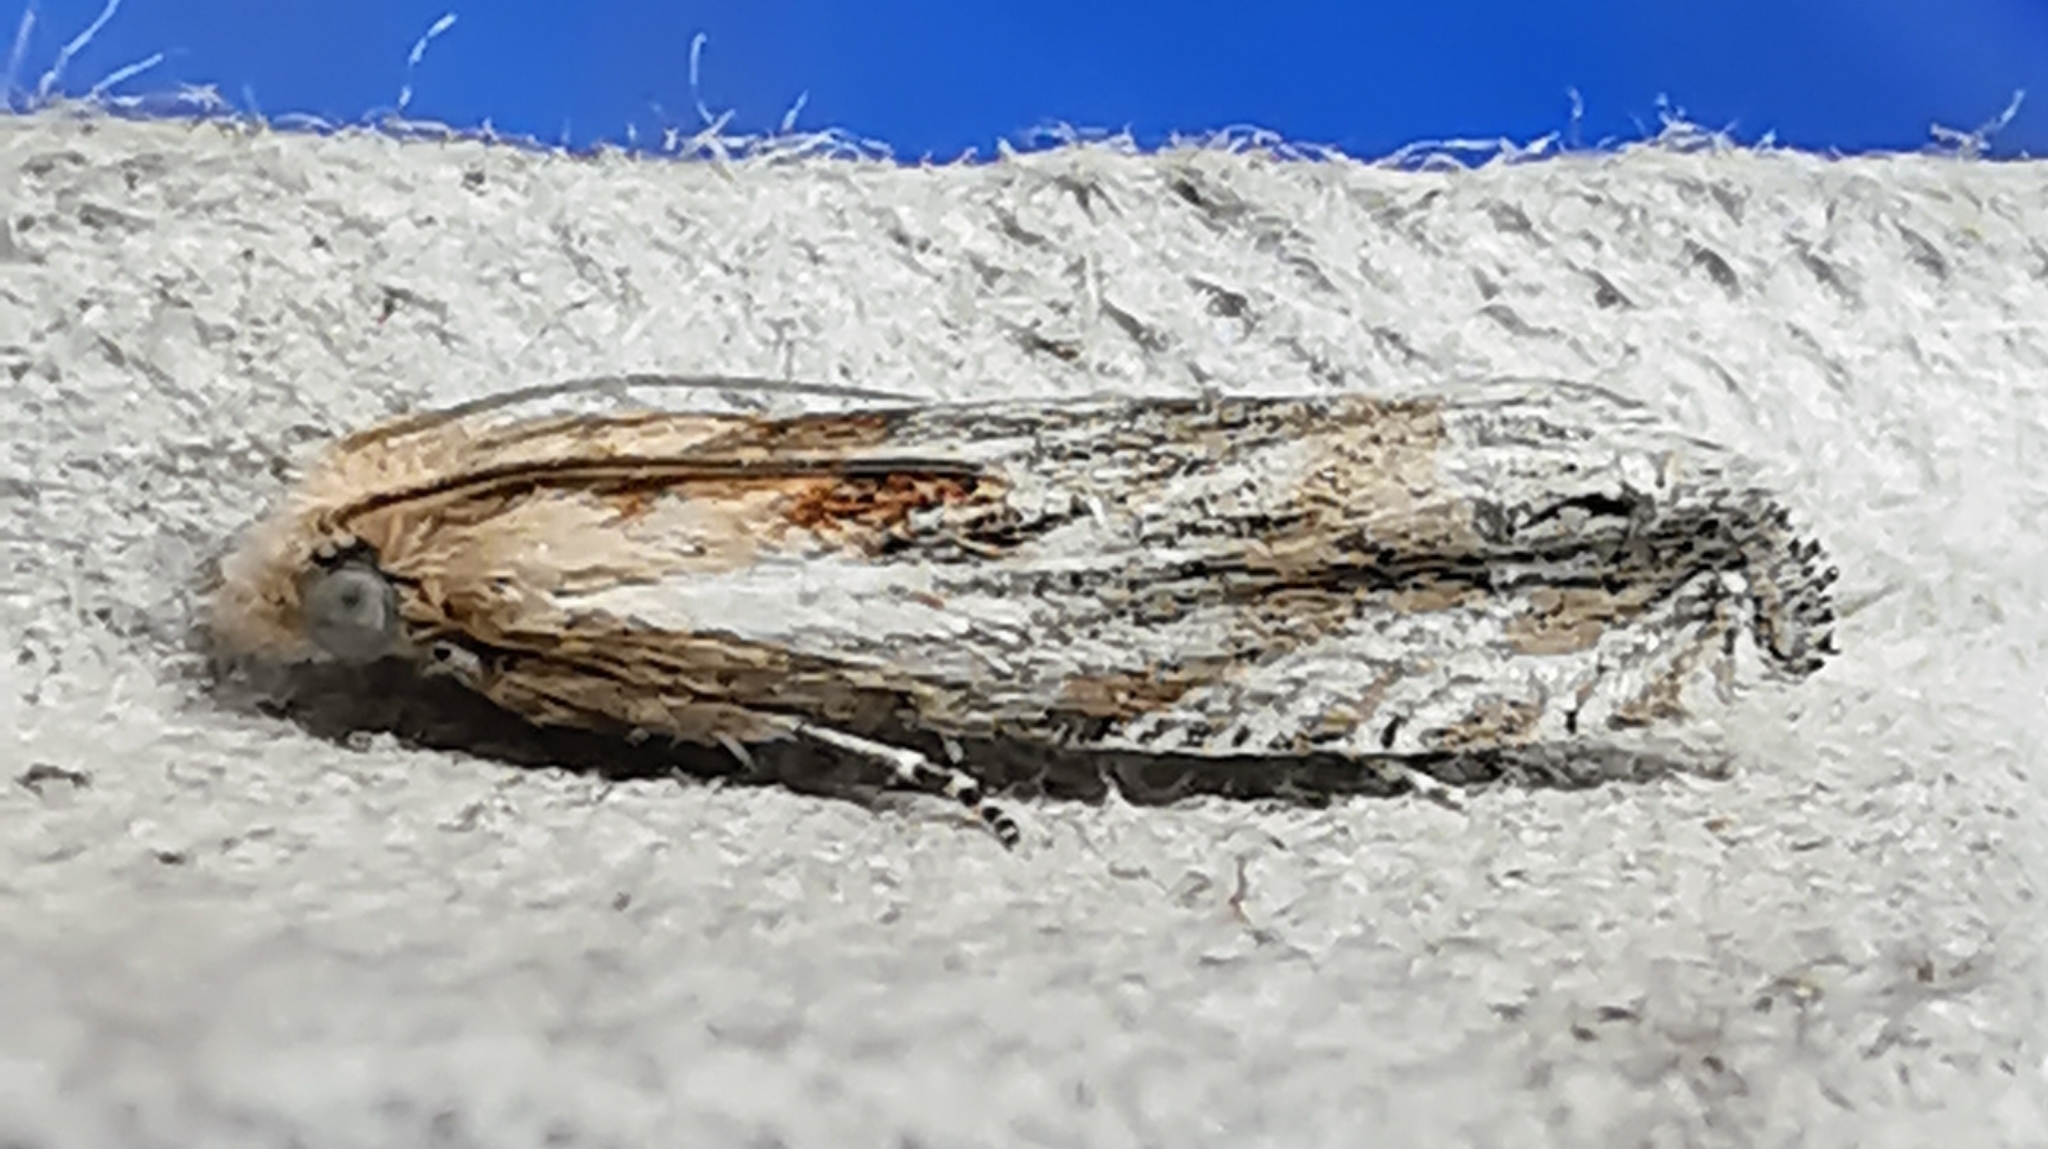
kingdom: Animalia
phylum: Arthropoda
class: Insecta
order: Lepidoptera
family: Tortricidae
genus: Eucosma
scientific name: Eucosma cana
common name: Hoary belle
